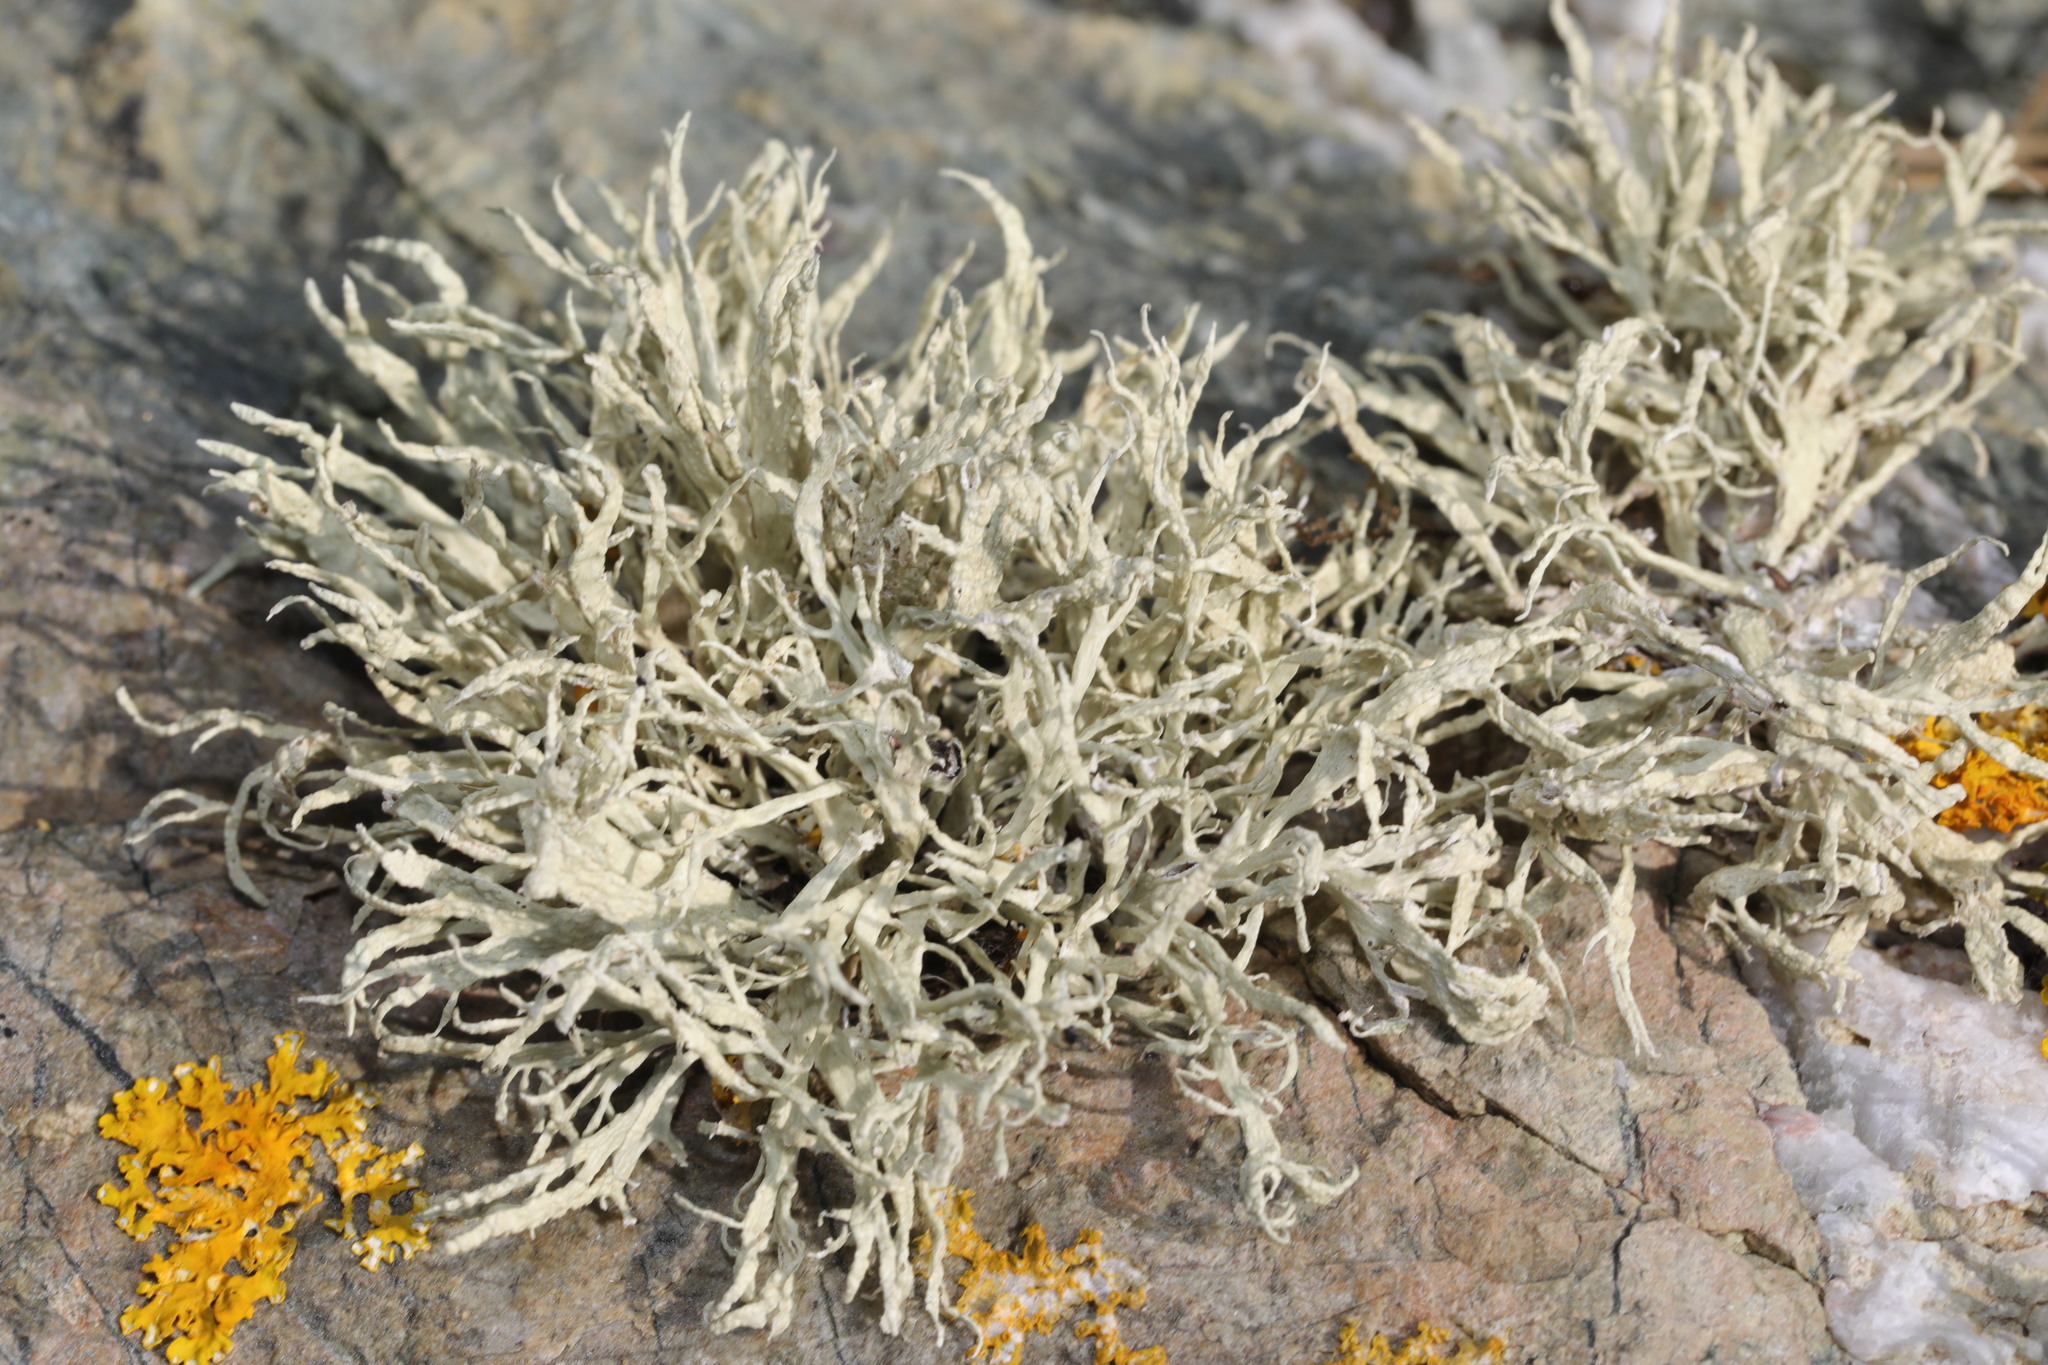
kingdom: Fungi
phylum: Ascomycota
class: Lecanoromycetes
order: Lecanorales
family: Ramalinaceae
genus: Ramalina
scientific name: Ramalina siliquosa
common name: Sea ivory
